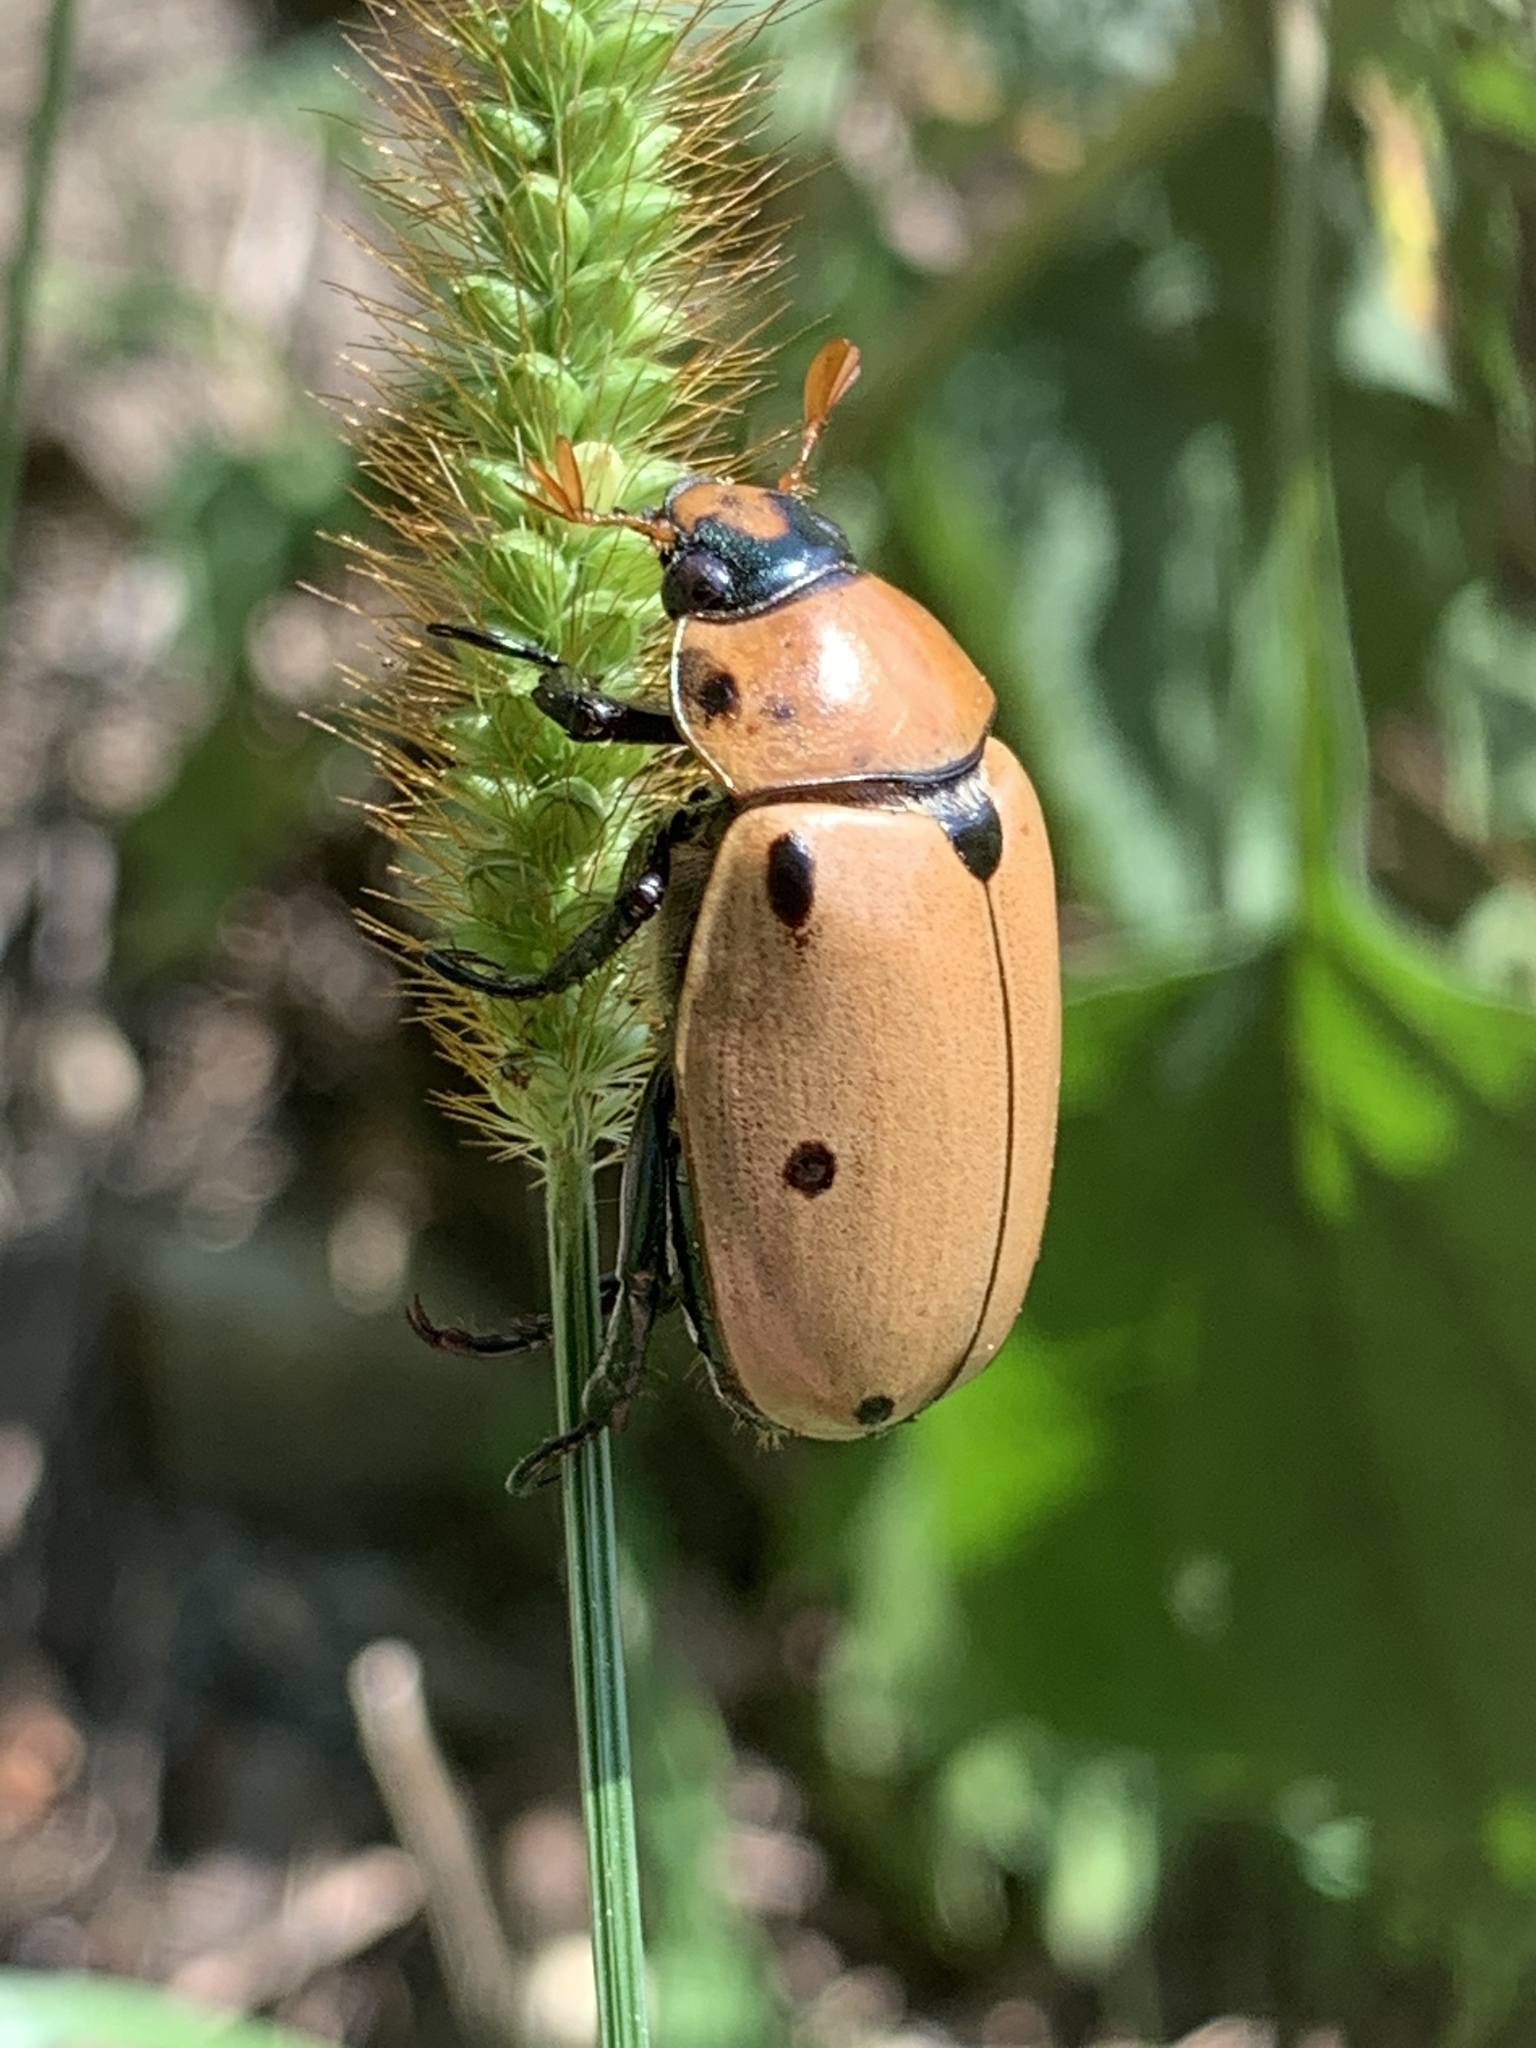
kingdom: Animalia
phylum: Arthropoda
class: Insecta
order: Coleoptera
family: Scarabaeidae
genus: Pelidnota
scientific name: Pelidnota punctata
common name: Grapevine beetle
